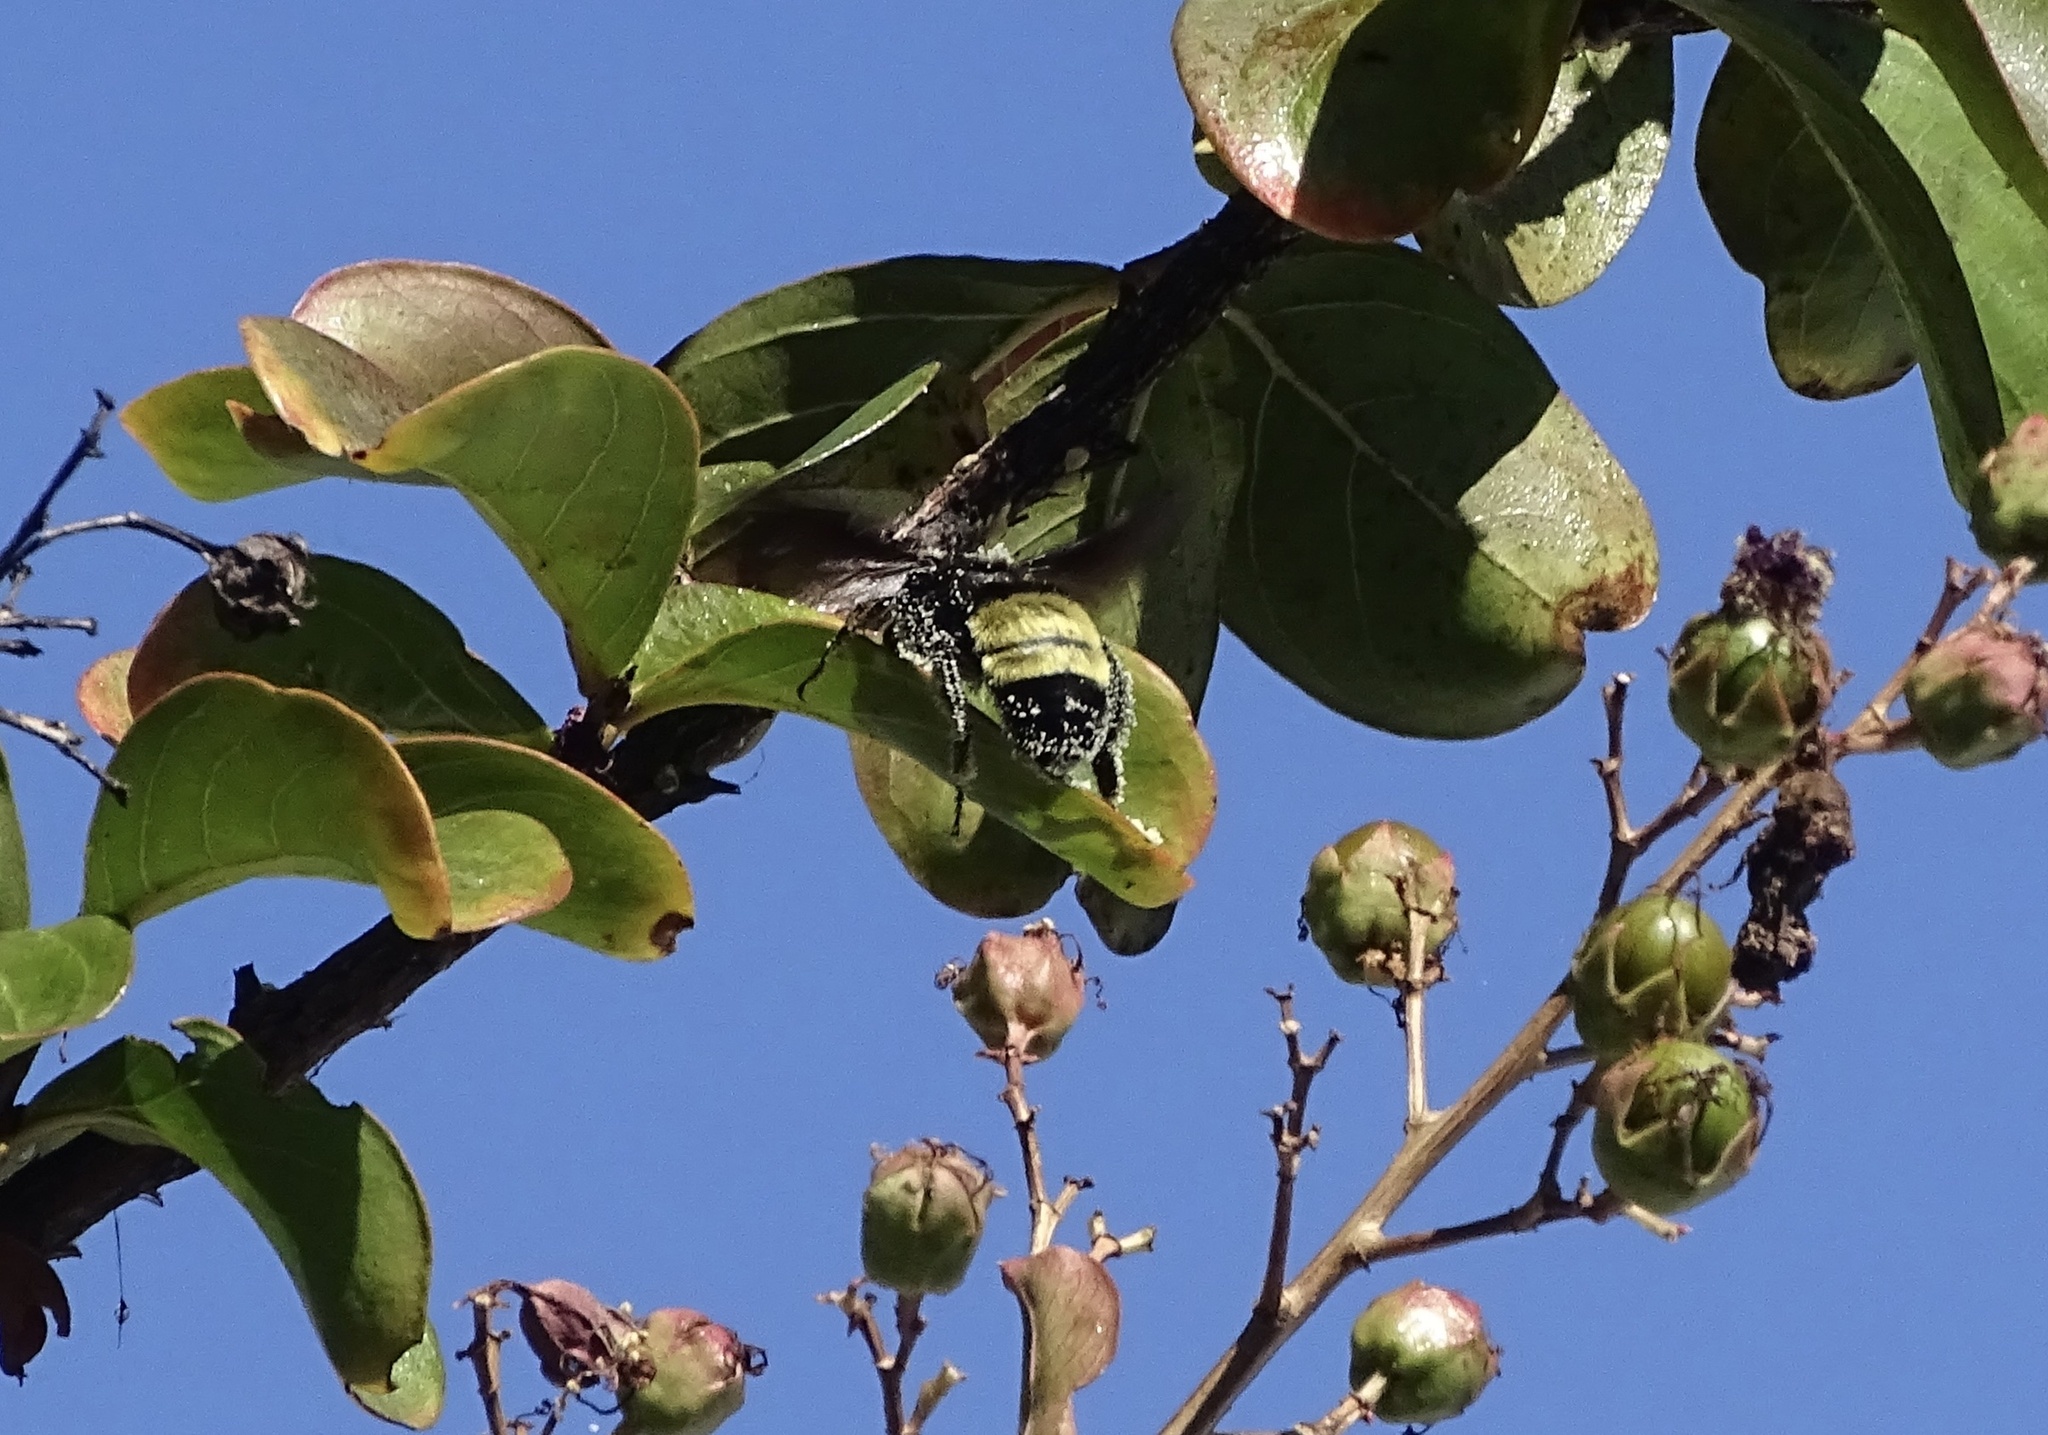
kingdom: Animalia
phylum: Arthropoda
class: Insecta
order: Hymenoptera
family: Apidae
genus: Bombus
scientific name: Bombus pensylvanicus
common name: Bumble bee
